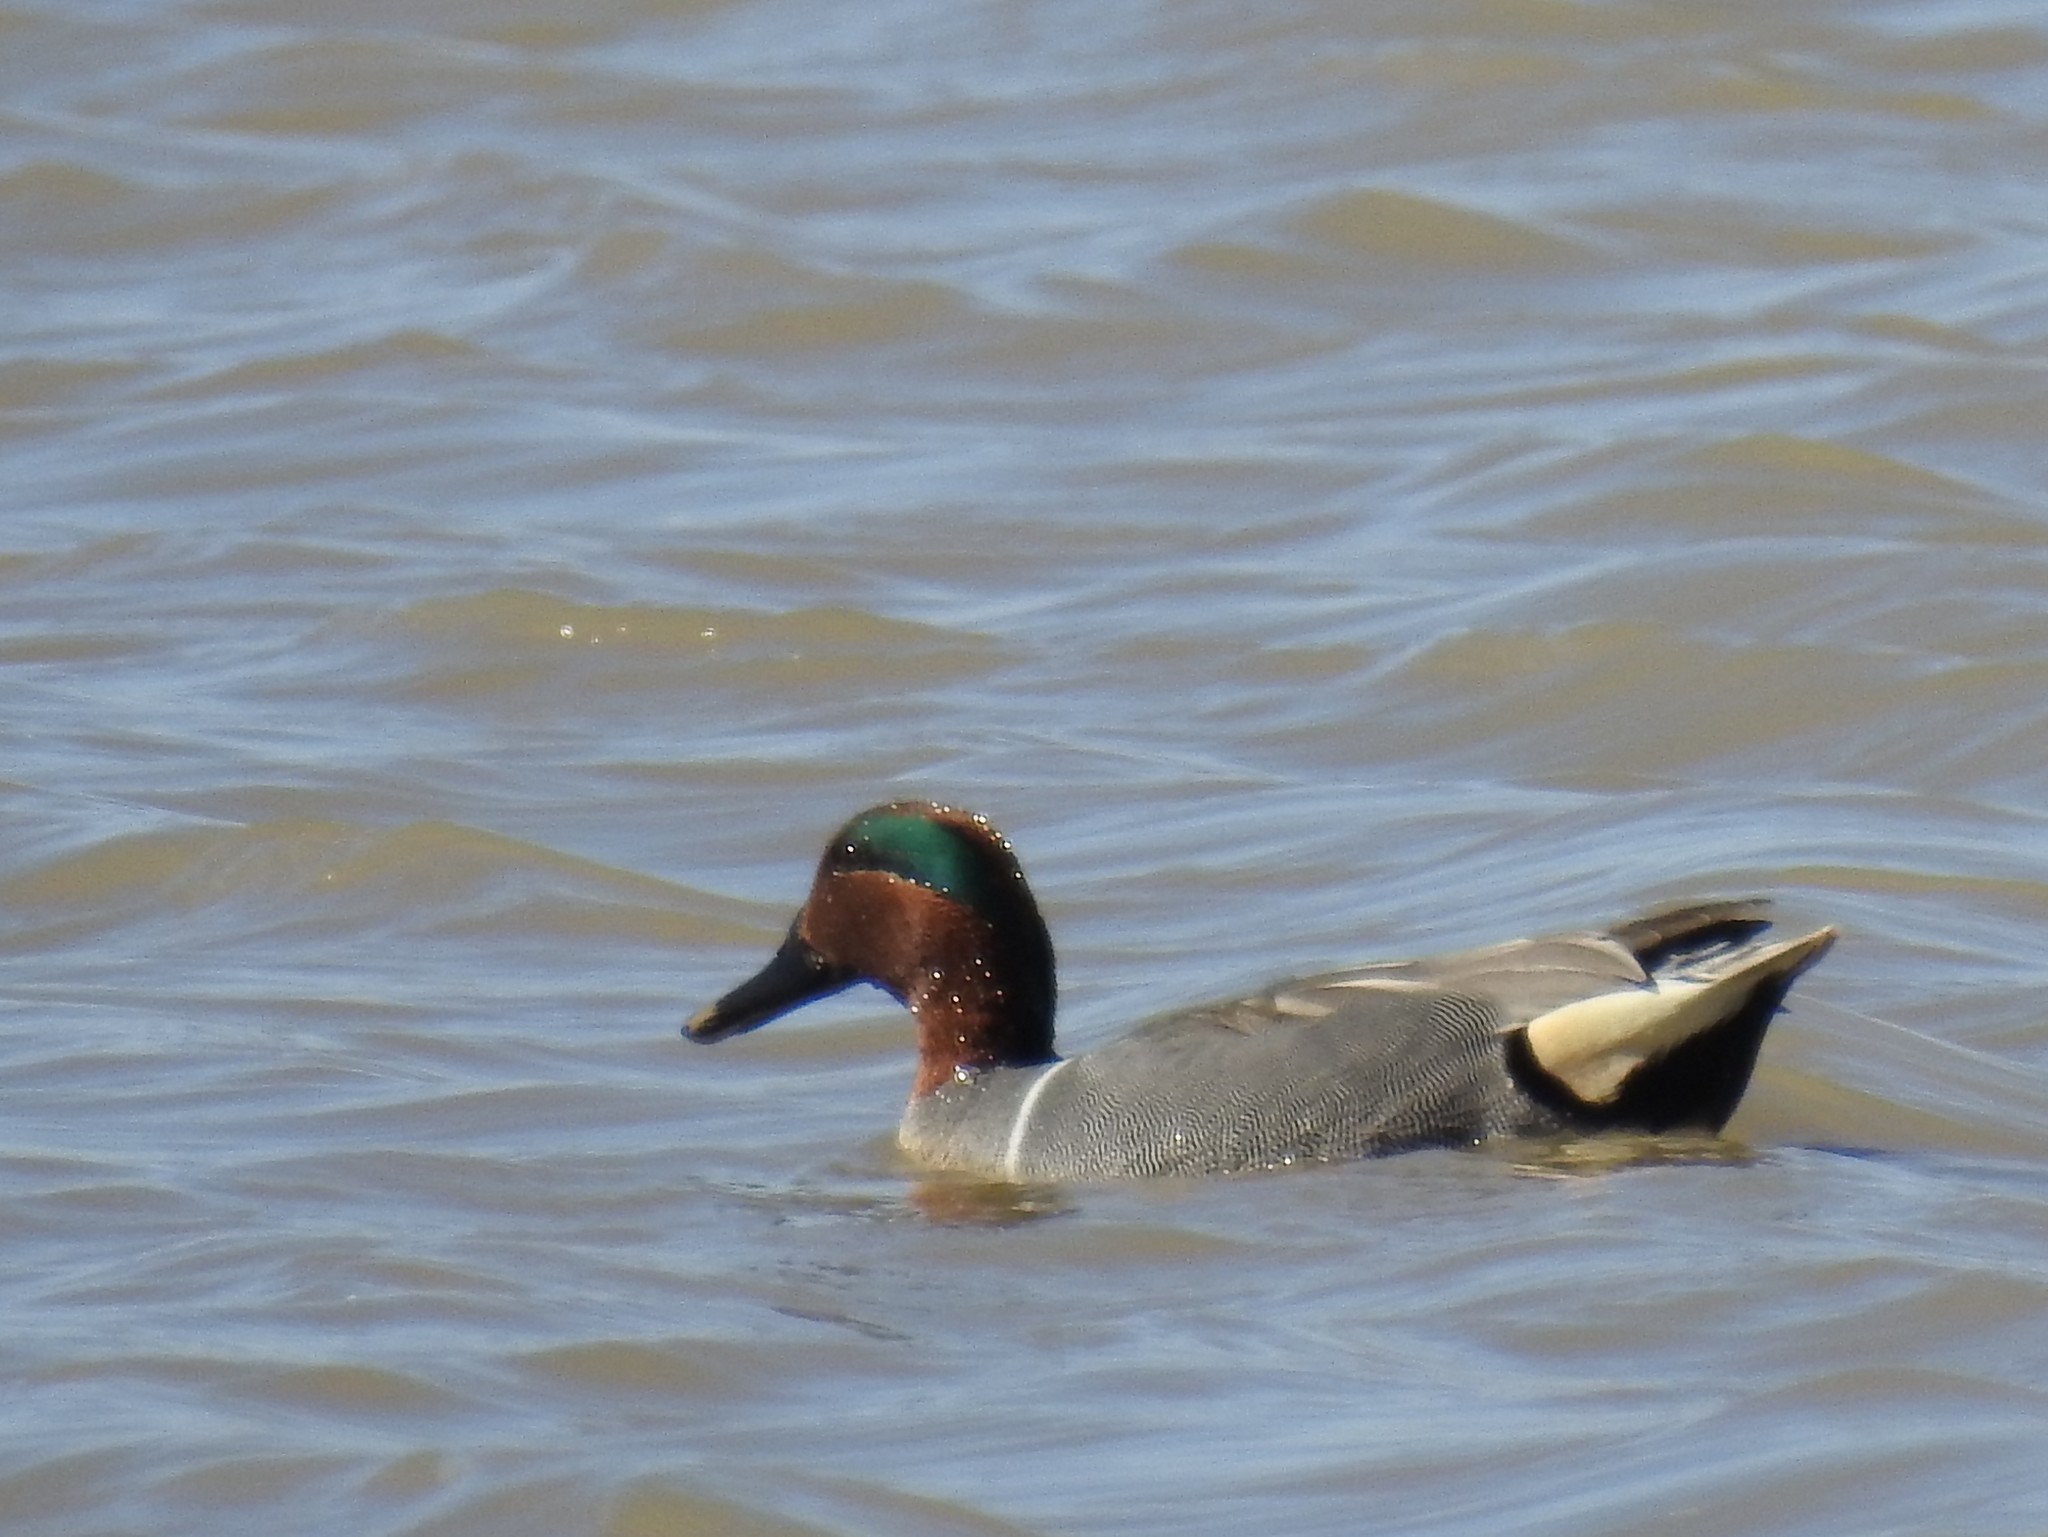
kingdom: Animalia
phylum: Chordata
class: Aves
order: Anseriformes
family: Anatidae
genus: Anas
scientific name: Anas crecca
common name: Eurasian teal
